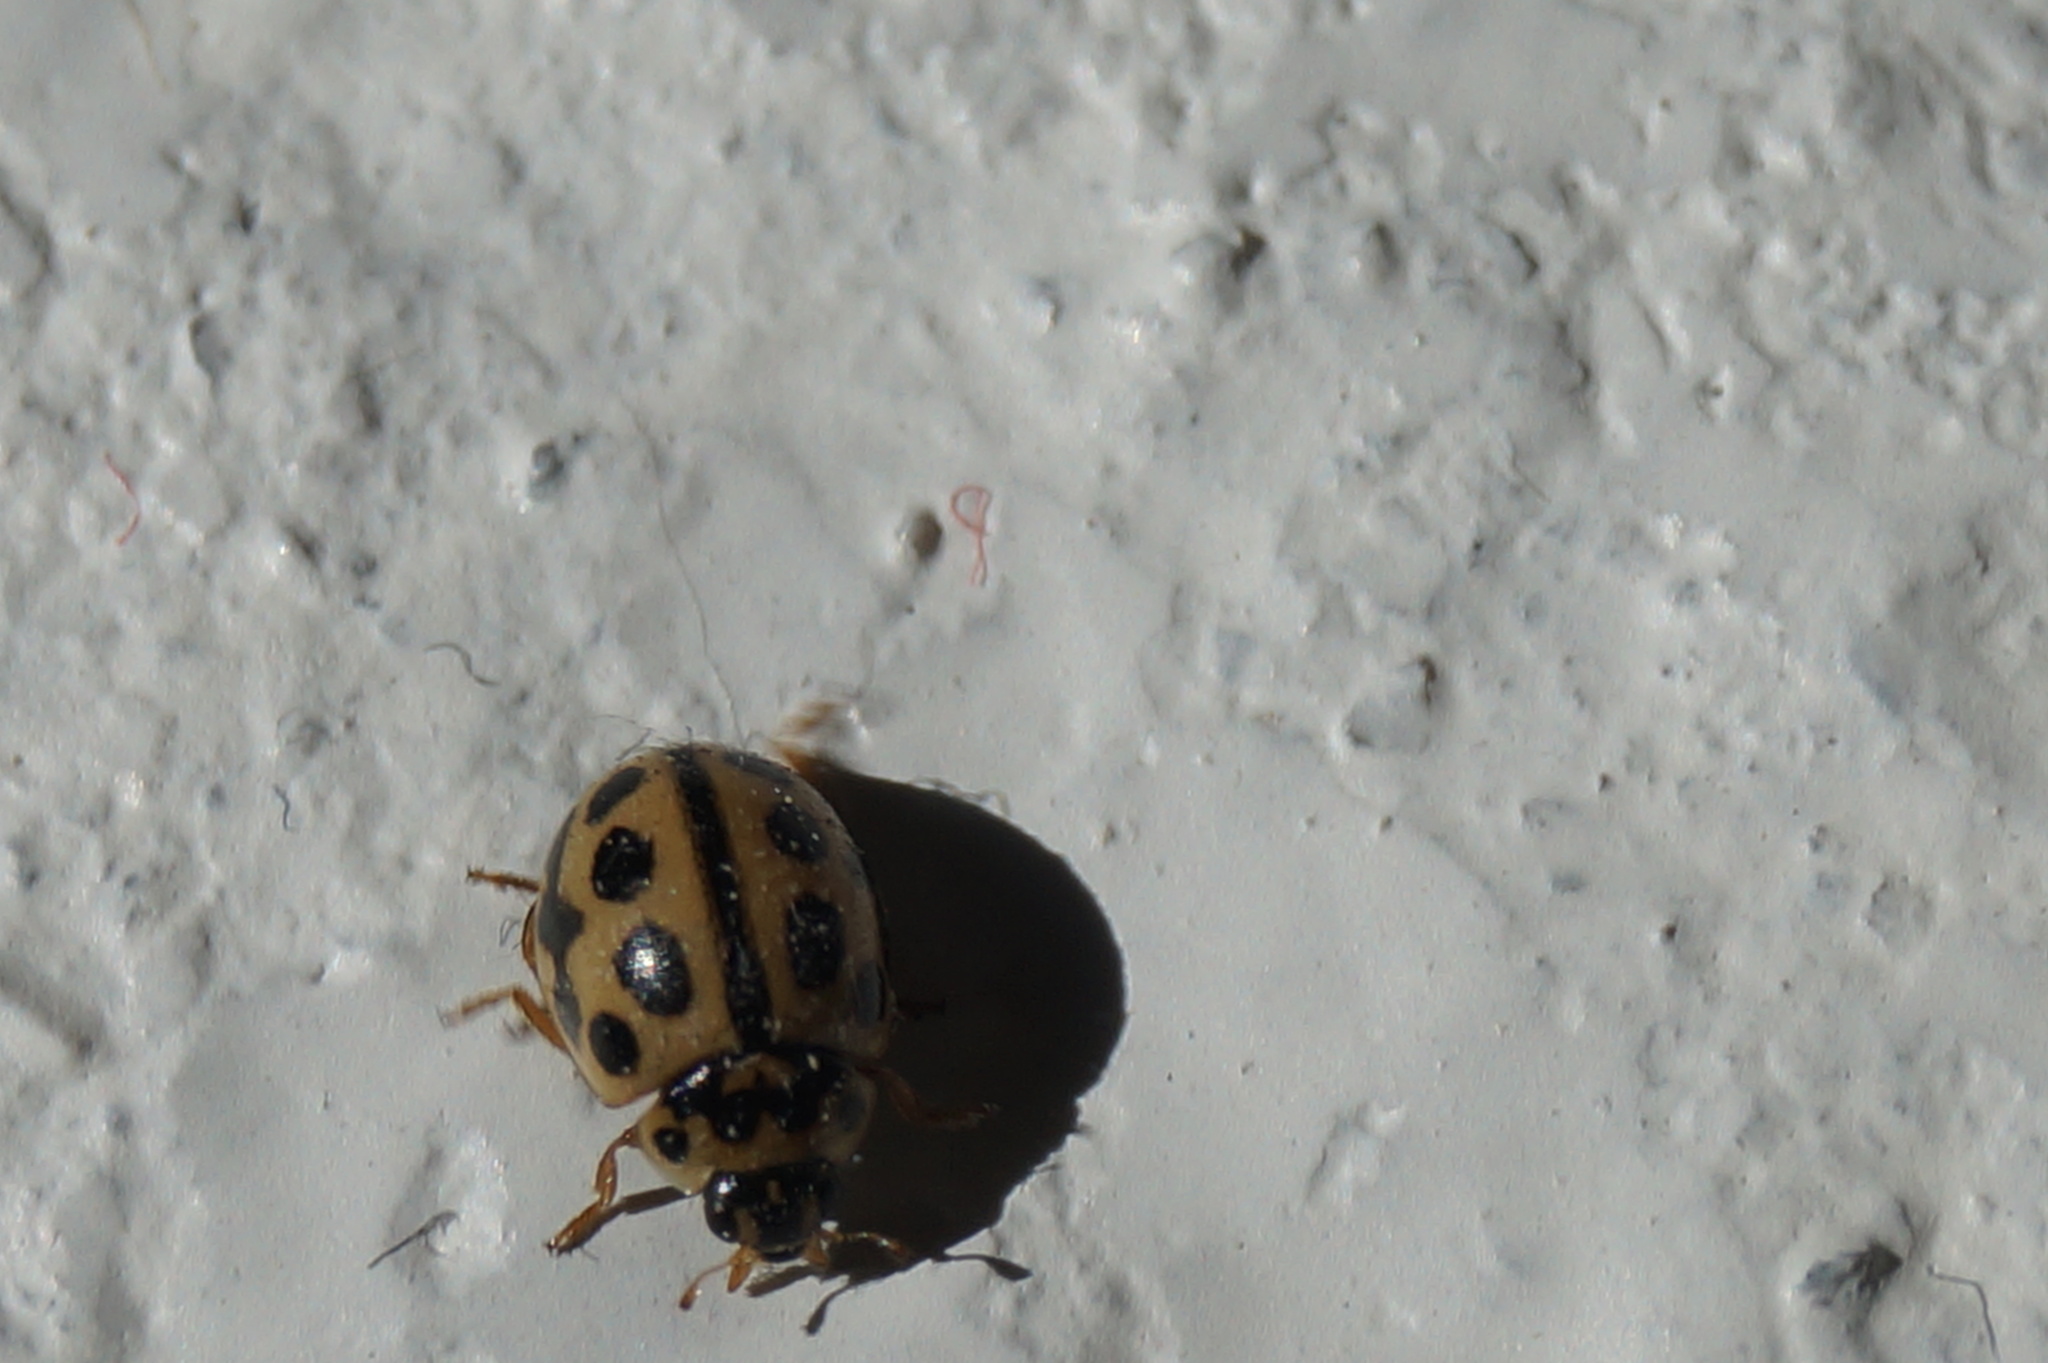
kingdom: Animalia
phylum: Arthropoda
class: Insecta
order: Coleoptera
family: Coccinellidae
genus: Tytthaspis
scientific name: Tytthaspis sedecimpunctata
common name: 16-spot ladybird
